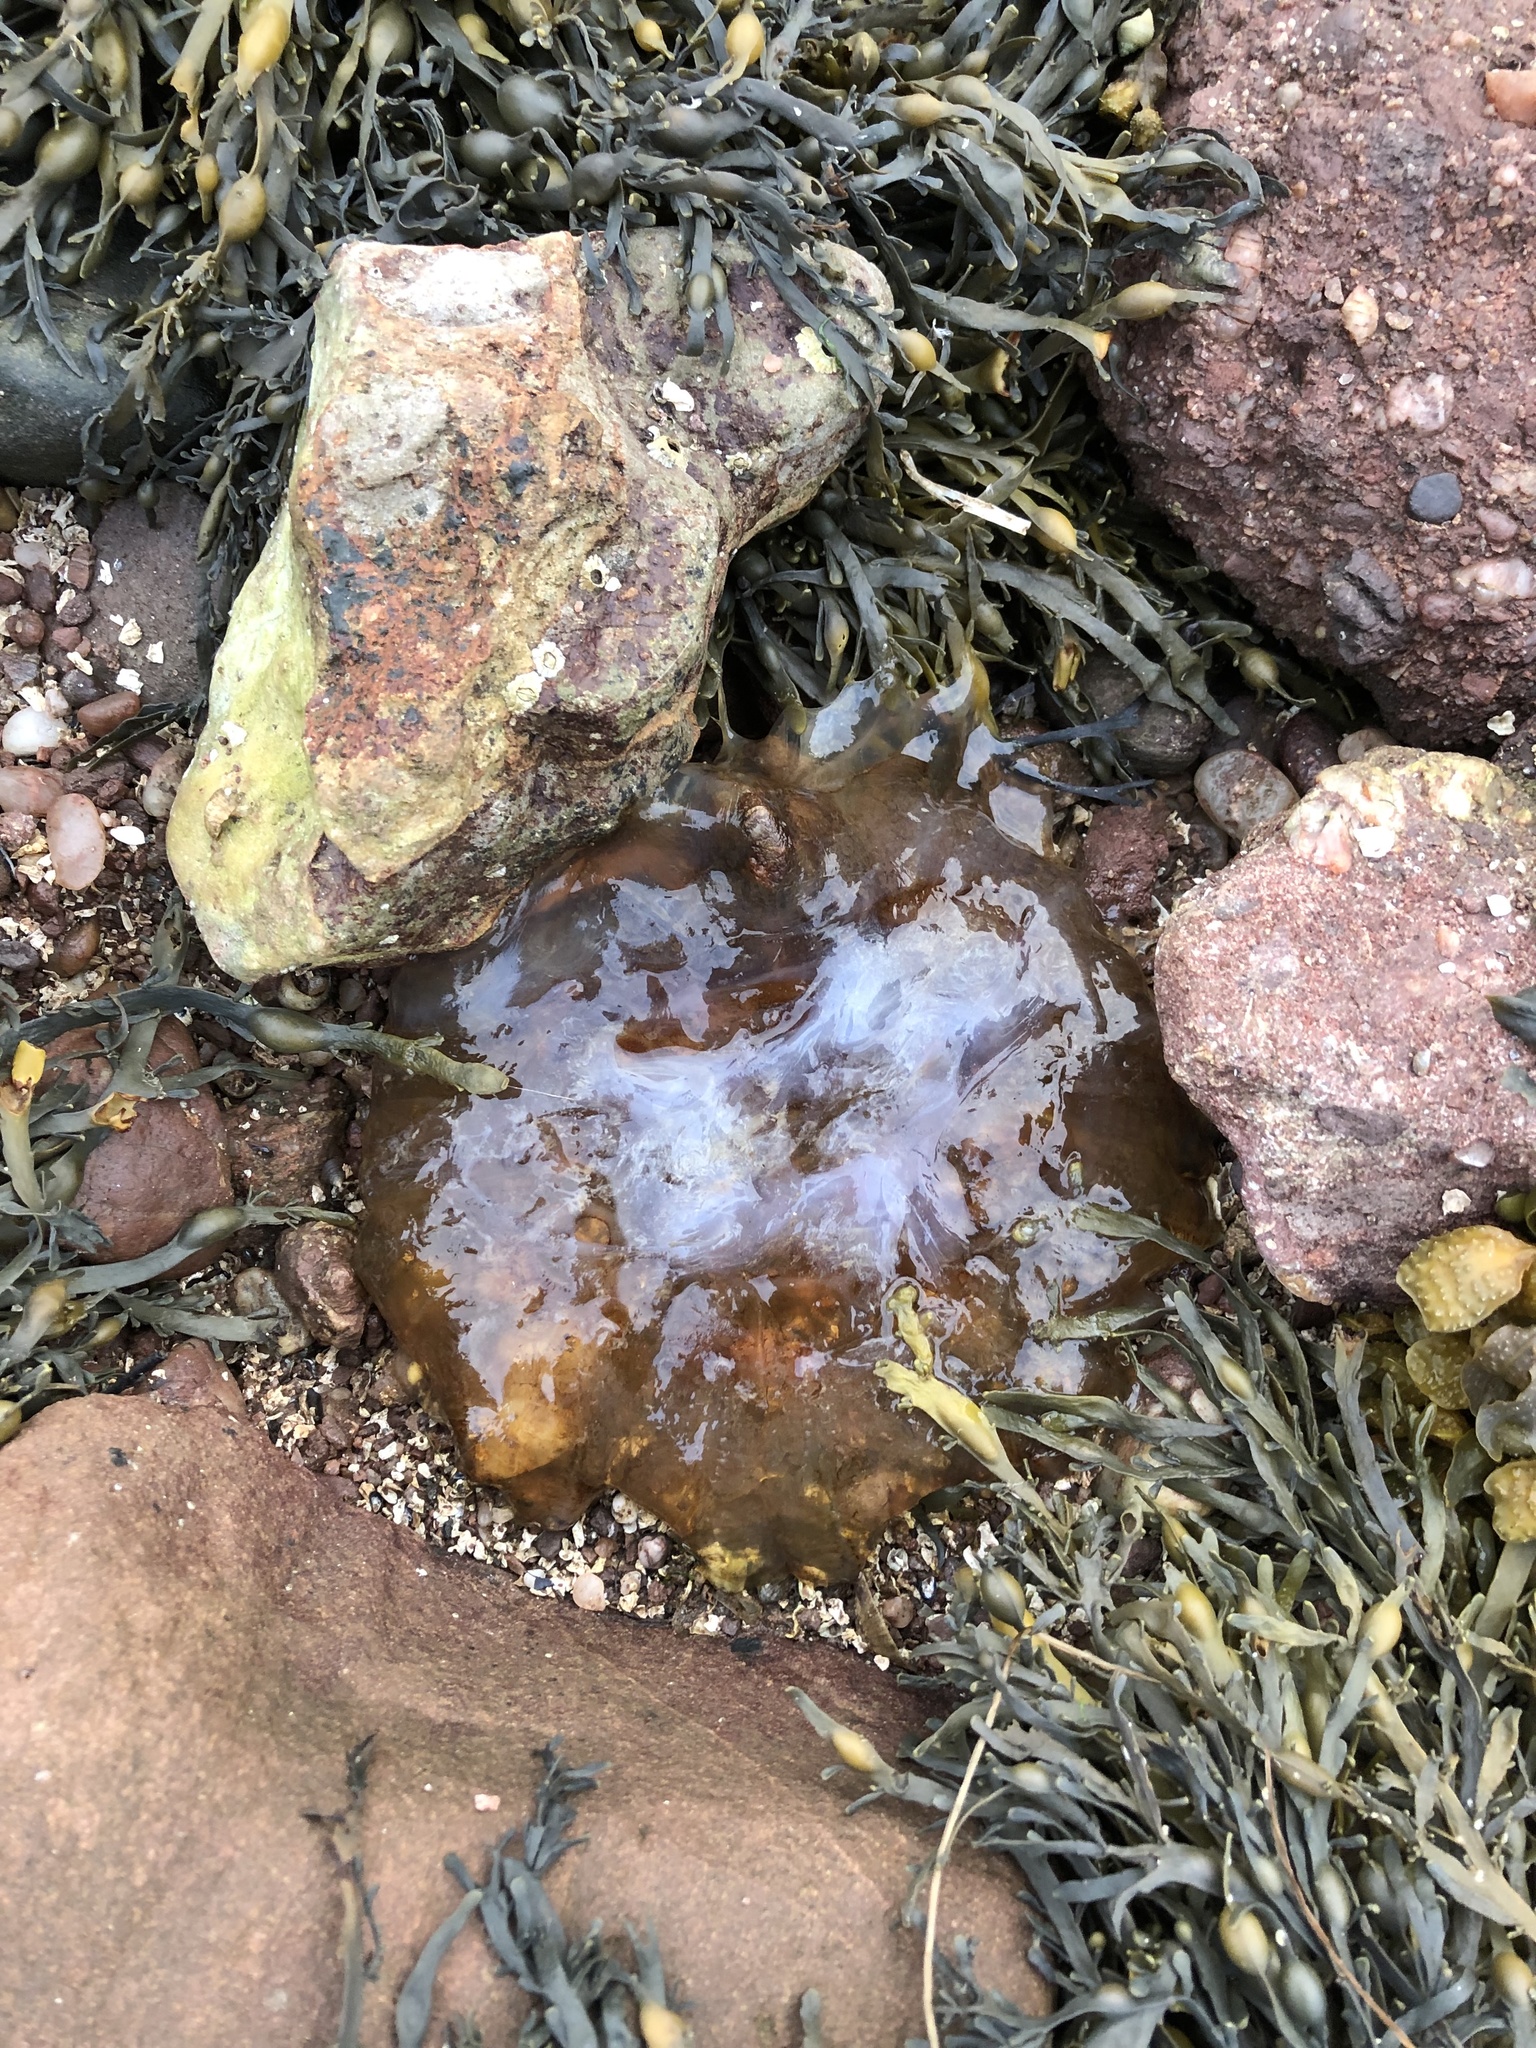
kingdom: Animalia
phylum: Cnidaria
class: Scyphozoa
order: Semaeostomeae
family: Cyaneidae
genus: Cyanea
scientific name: Cyanea capillata
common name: Lion's mane jellyfish
